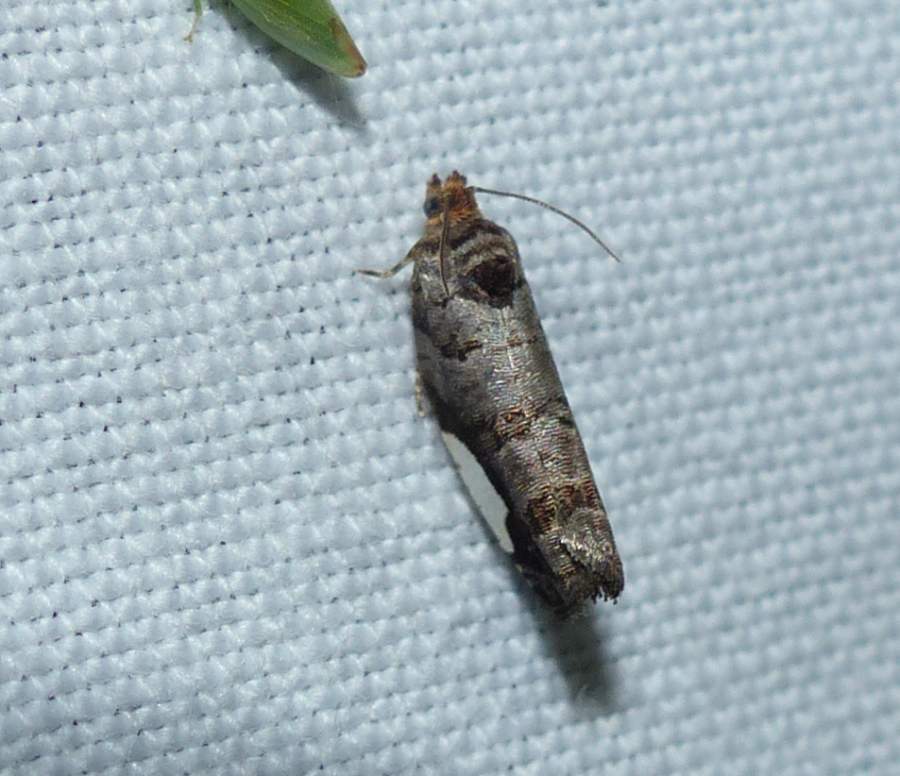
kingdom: Animalia
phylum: Arthropoda
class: Insecta
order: Lepidoptera
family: Tortricidae
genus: Hedya
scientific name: Hedya chionosema
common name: White-spotted hedya moth
